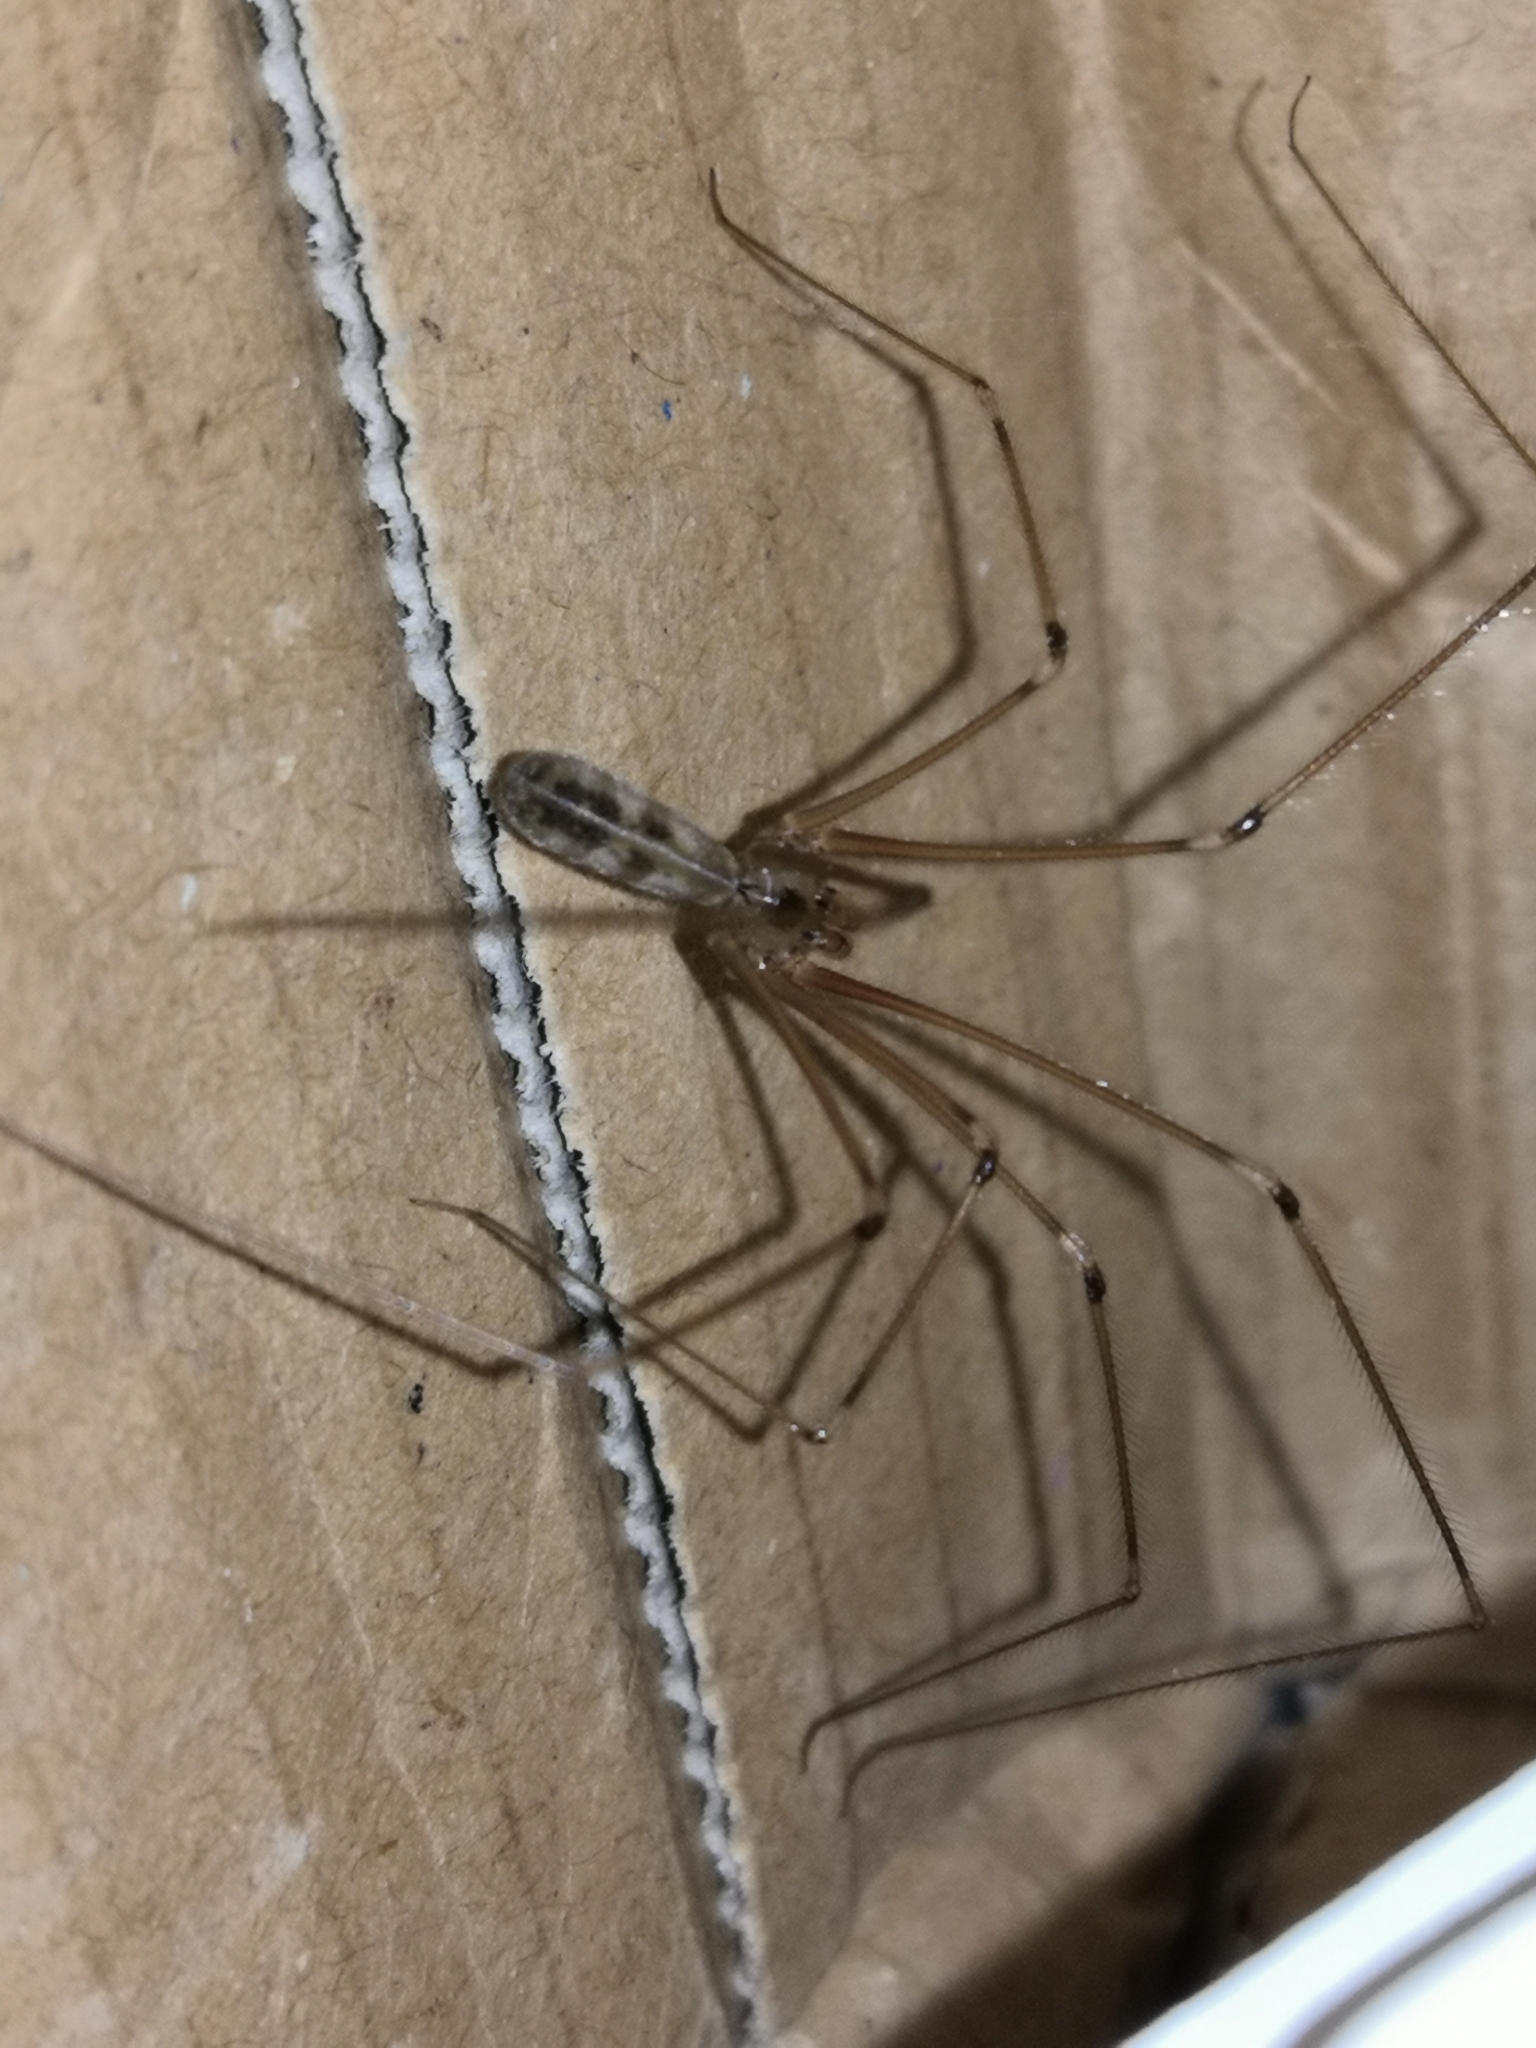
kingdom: Animalia
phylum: Arthropoda
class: Arachnida
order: Araneae
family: Pholcidae
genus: Pholcus
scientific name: Pholcus phalangioides
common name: Longbodied cellar spider
